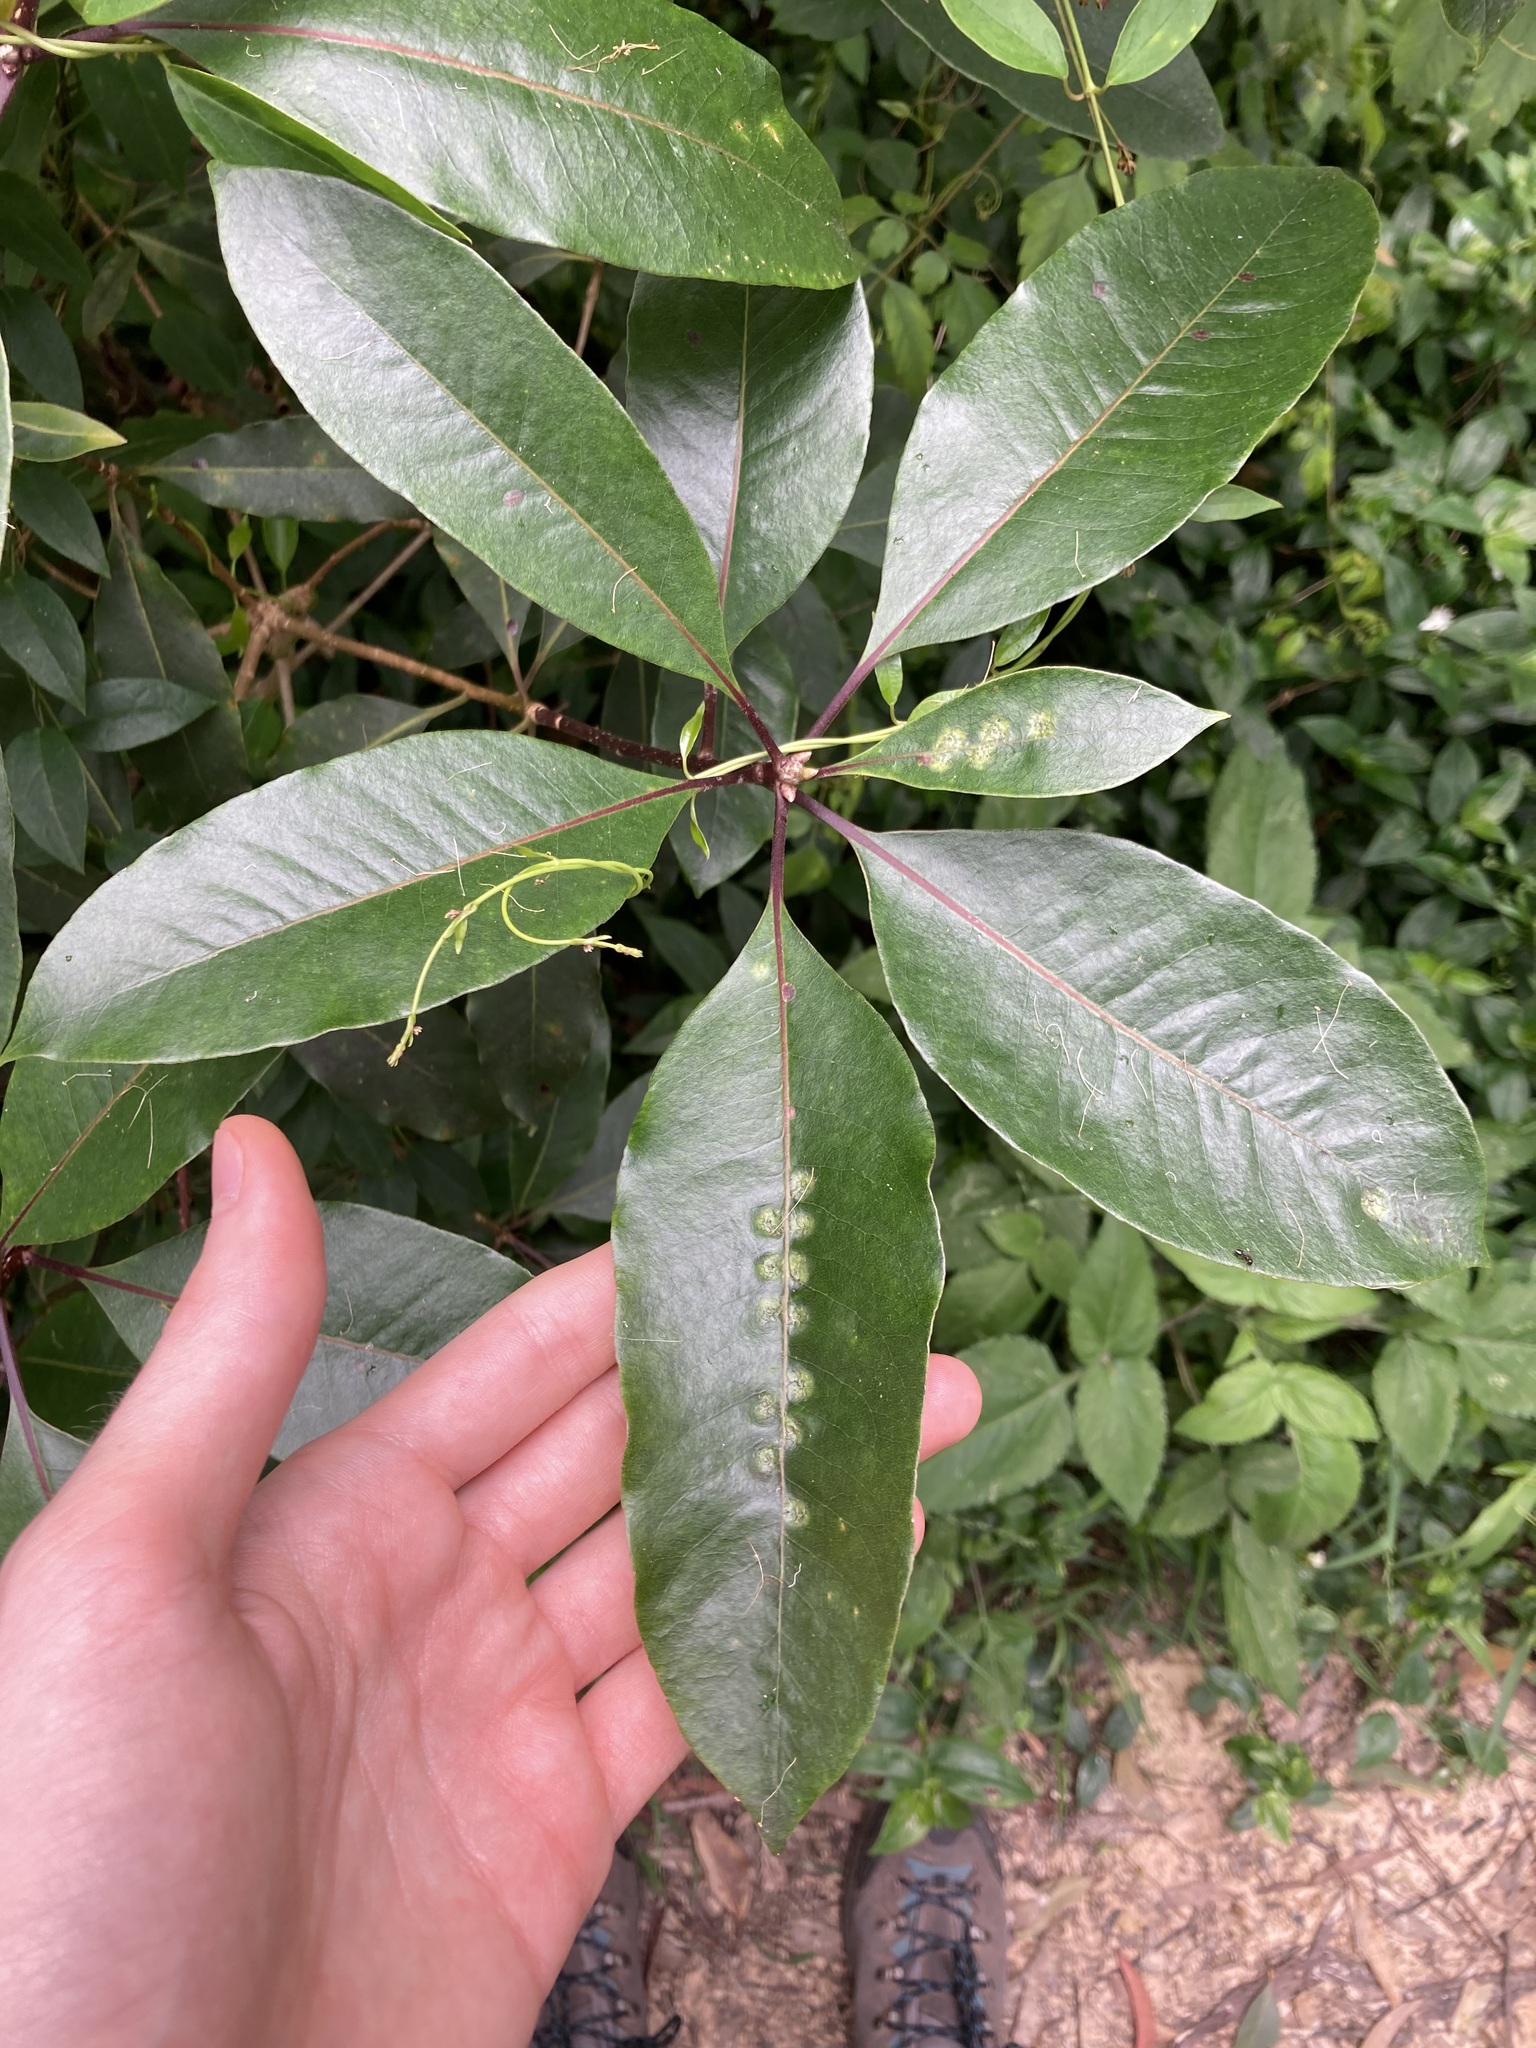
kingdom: Animalia
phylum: Arthropoda
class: Insecta
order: Diptera
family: Agromyzidae
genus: Phytoliriomyza
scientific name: Phytoliriomyza pittosporophylli
